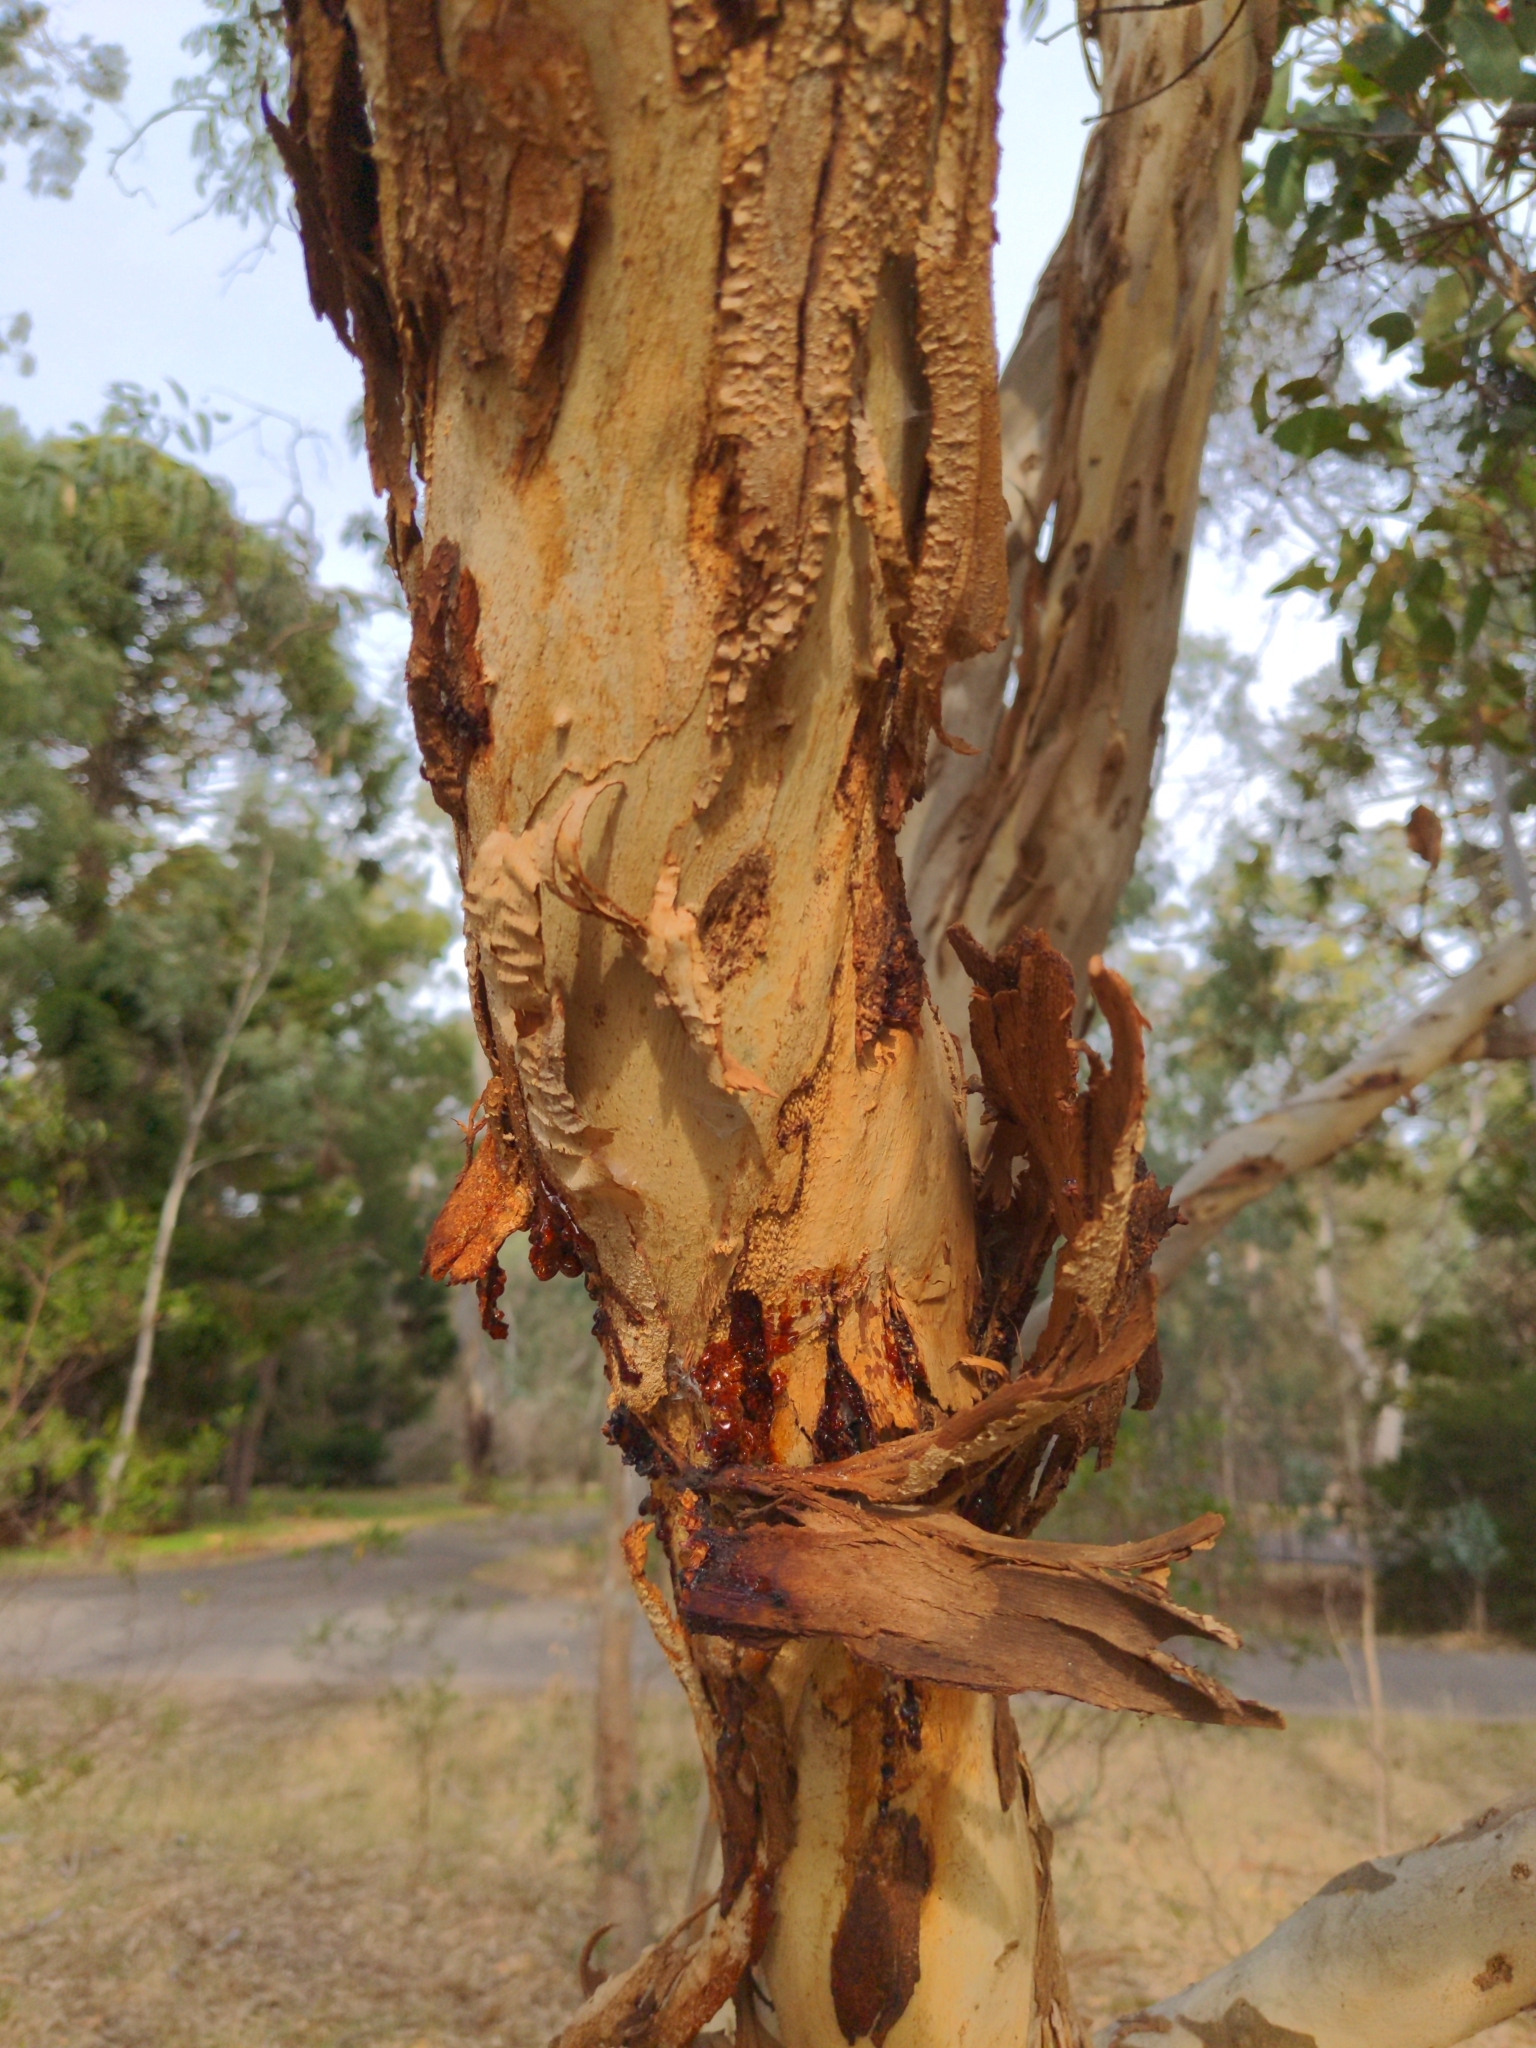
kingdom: Plantae
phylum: Tracheophyta
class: Magnoliopsida
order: Myrtales
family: Myrtaceae
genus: Eucalyptus
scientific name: Eucalyptus leucoxylon
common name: Blue gum
